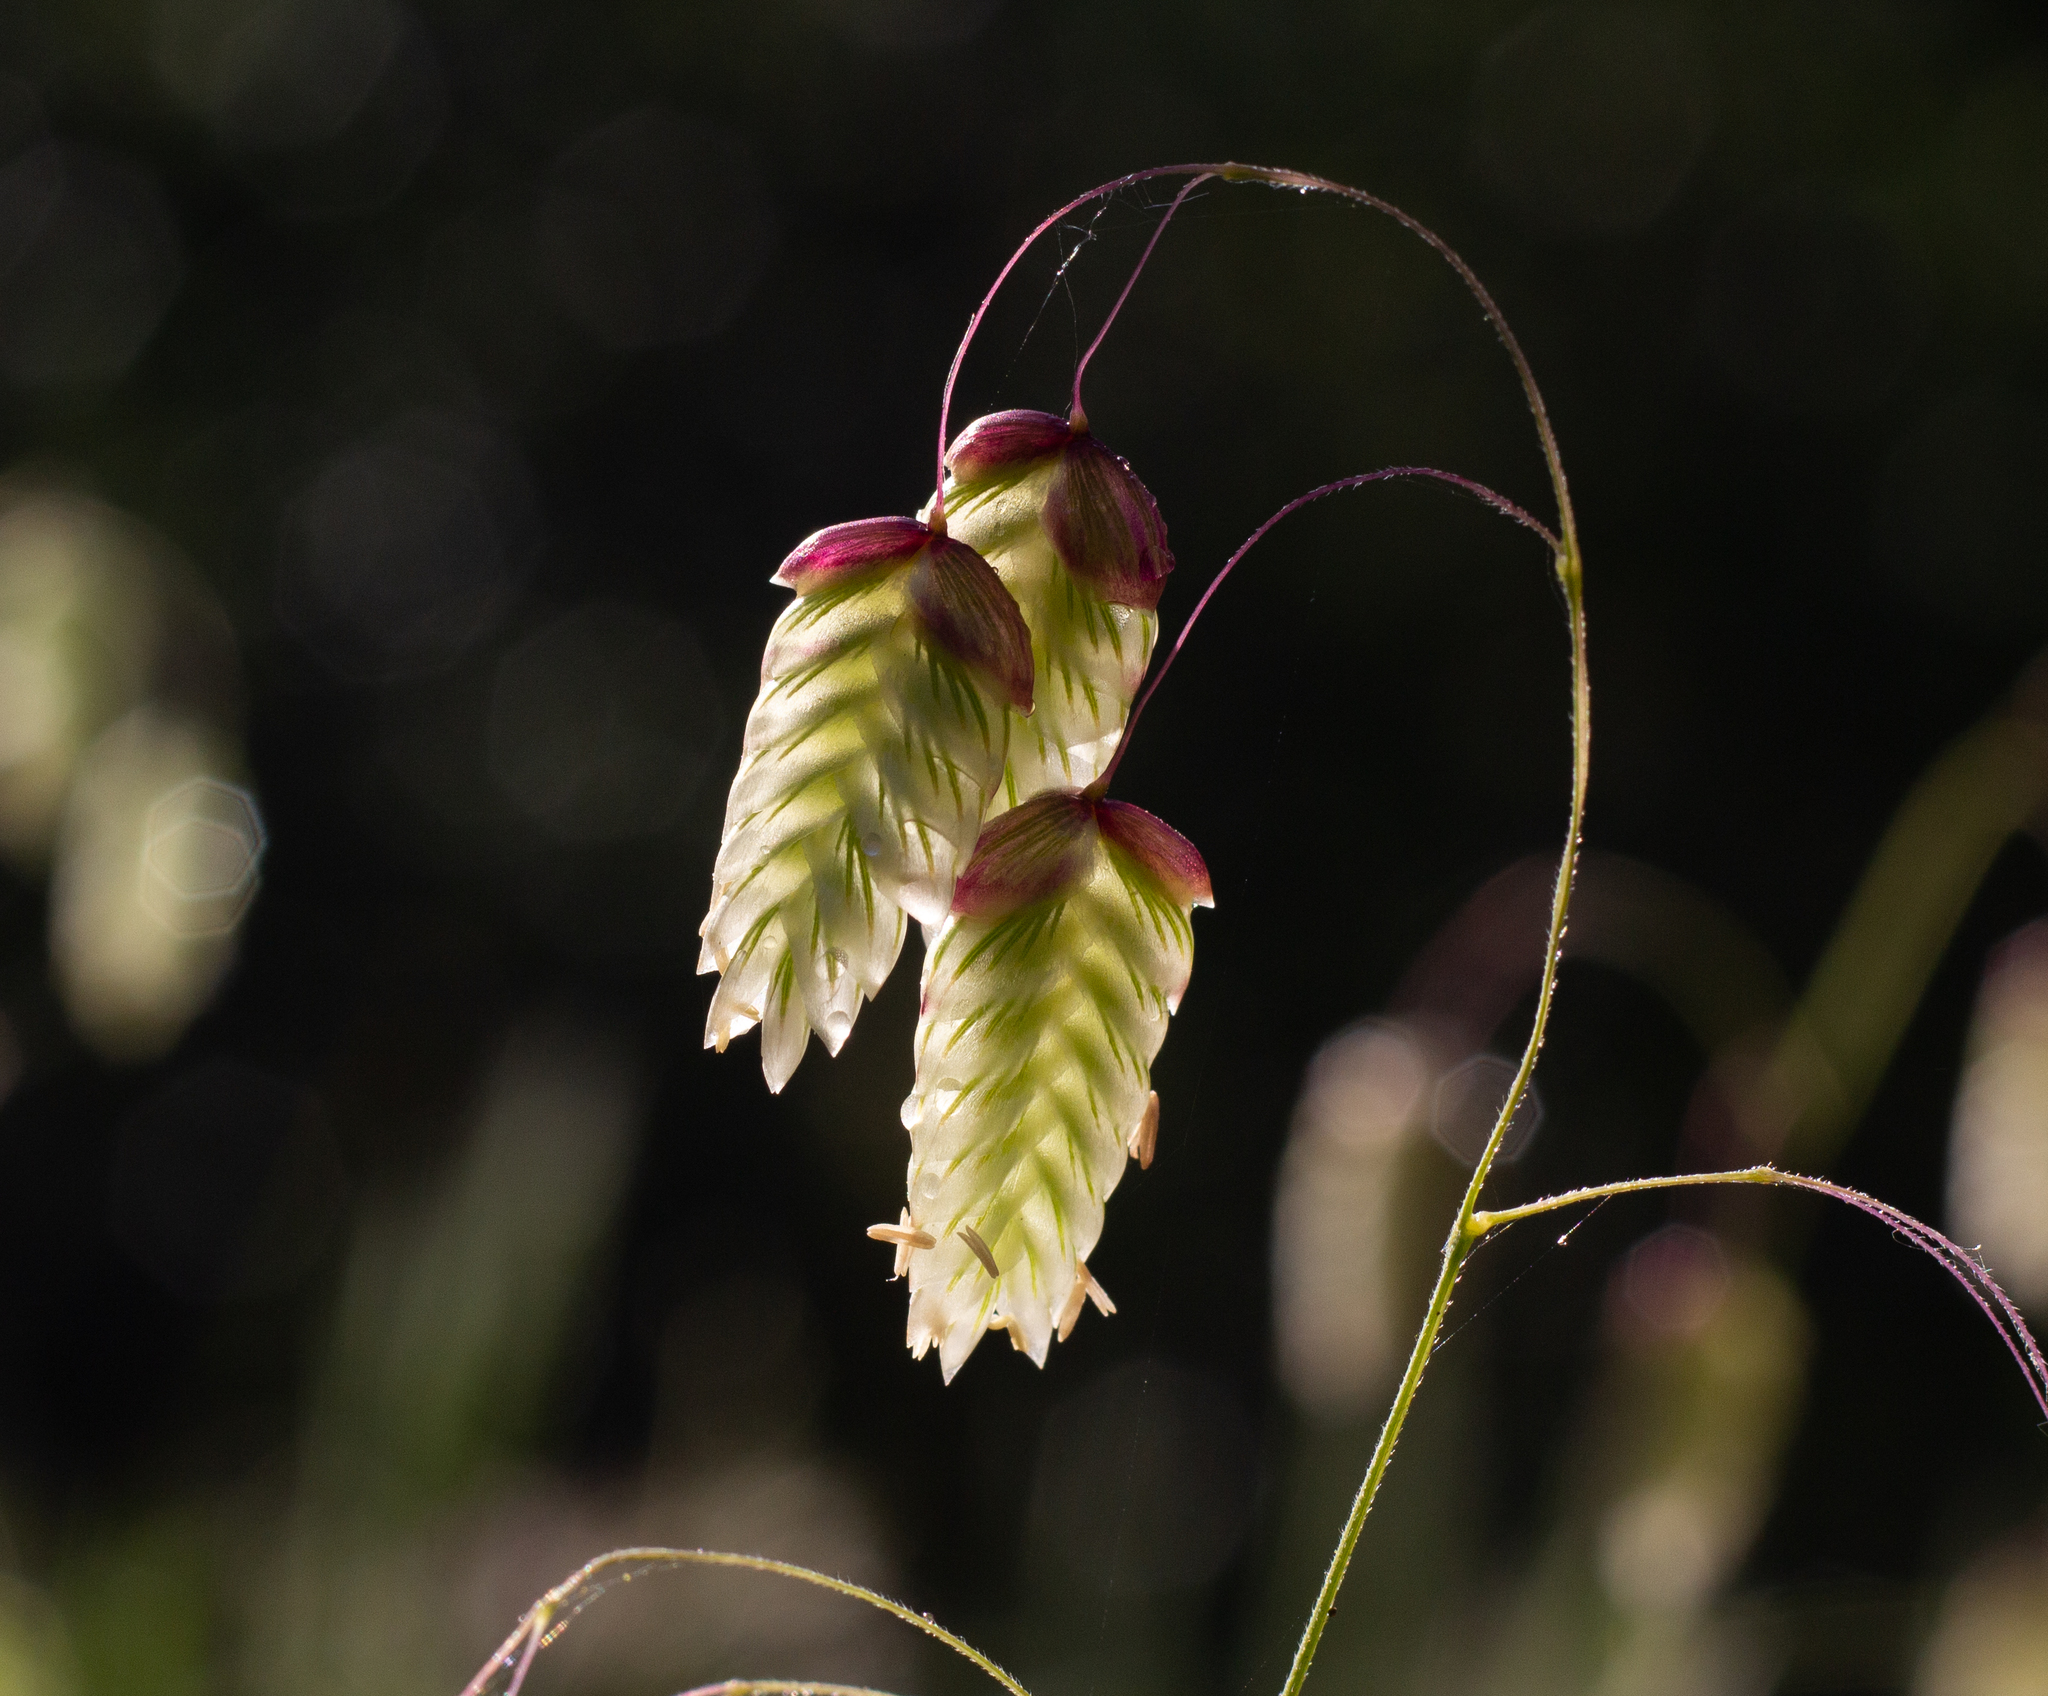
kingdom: Plantae
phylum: Tracheophyta
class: Liliopsida
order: Poales
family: Poaceae
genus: Briza
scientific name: Briza maxima
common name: Big quakinggrass
